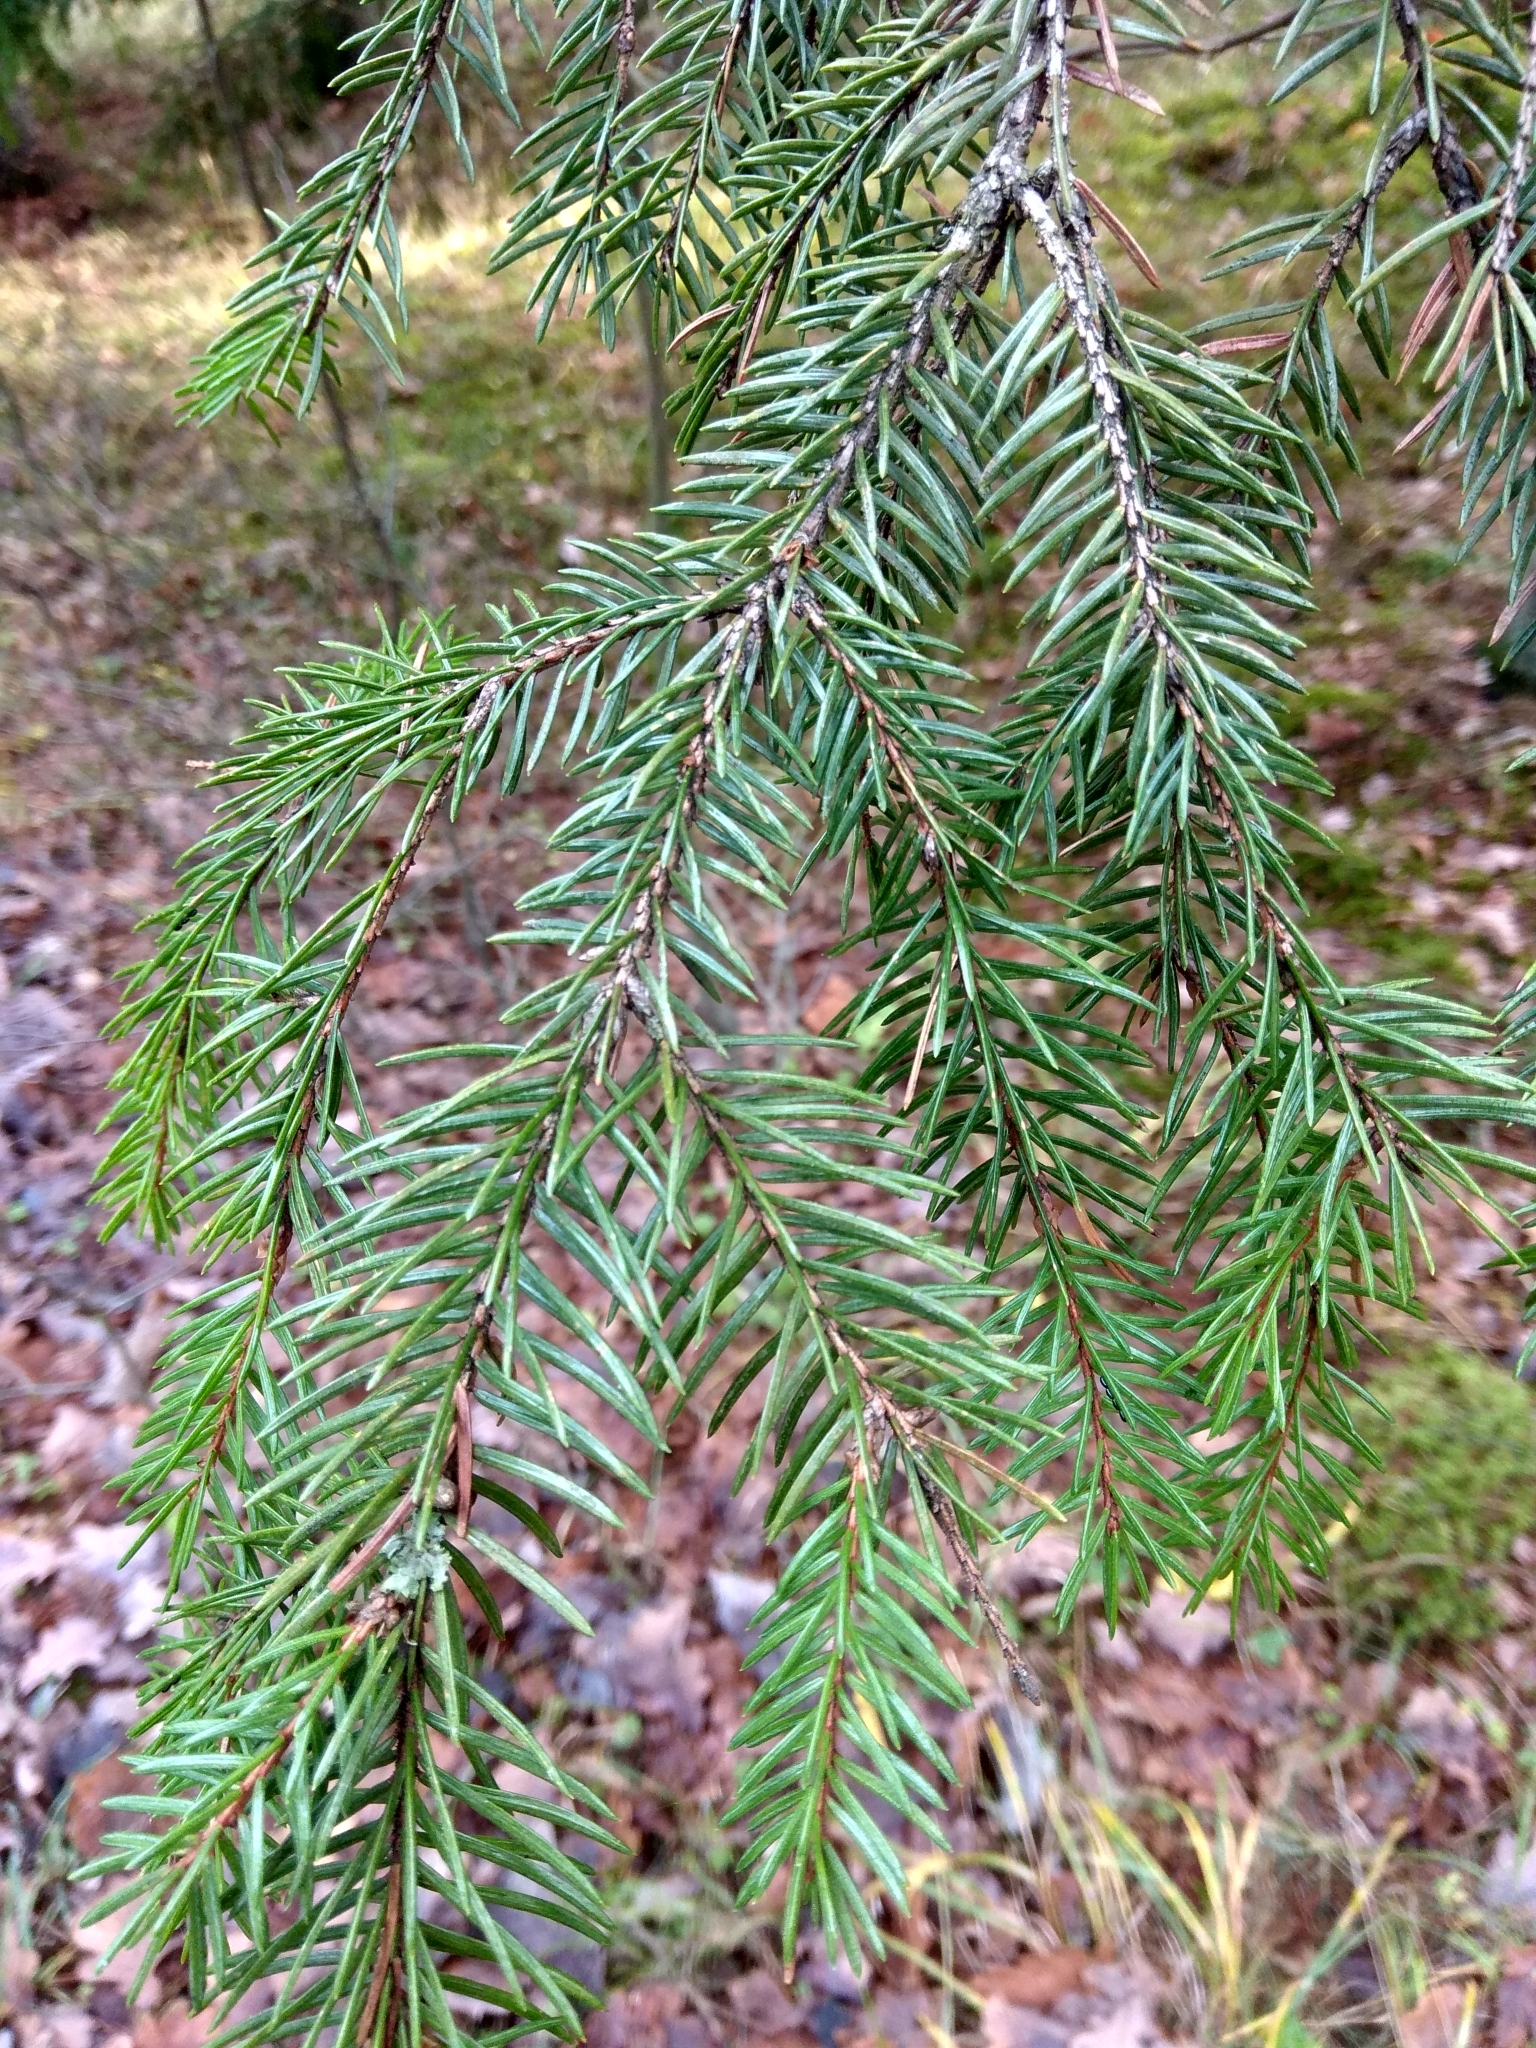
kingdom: Plantae
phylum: Tracheophyta
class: Pinopsida
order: Pinales
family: Pinaceae
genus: Picea
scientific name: Picea abies
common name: Norway spruce
